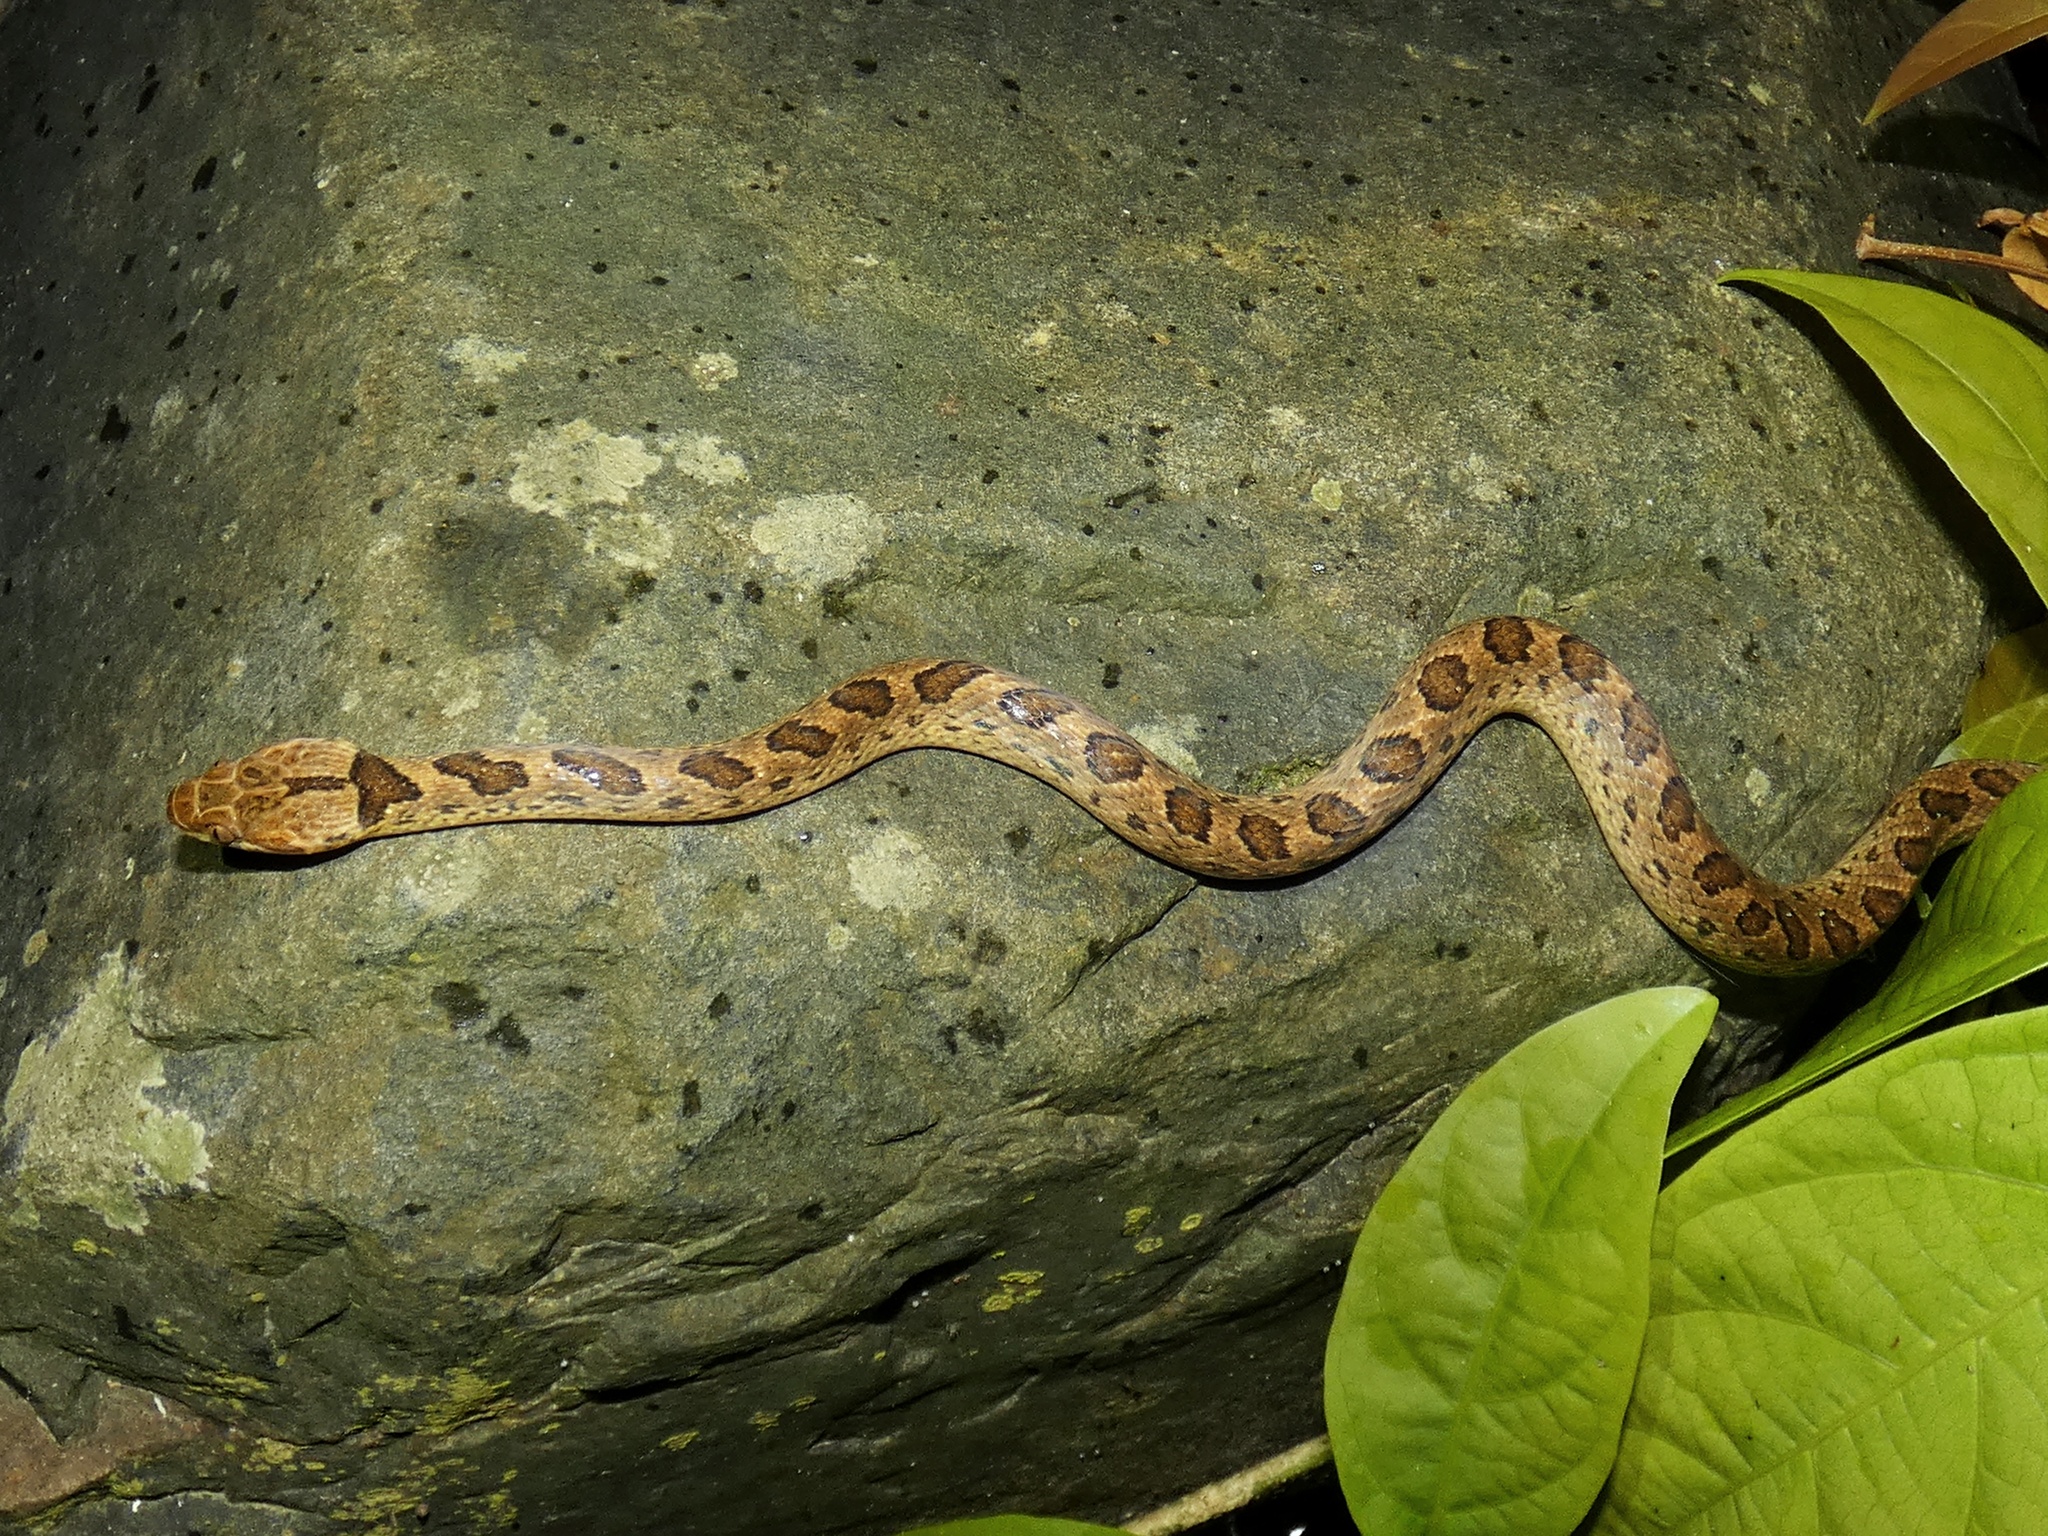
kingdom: Animalia
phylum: Chordata
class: Squamata
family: Colubridae
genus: Leptodeira
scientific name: Leptodeira rhombifera
